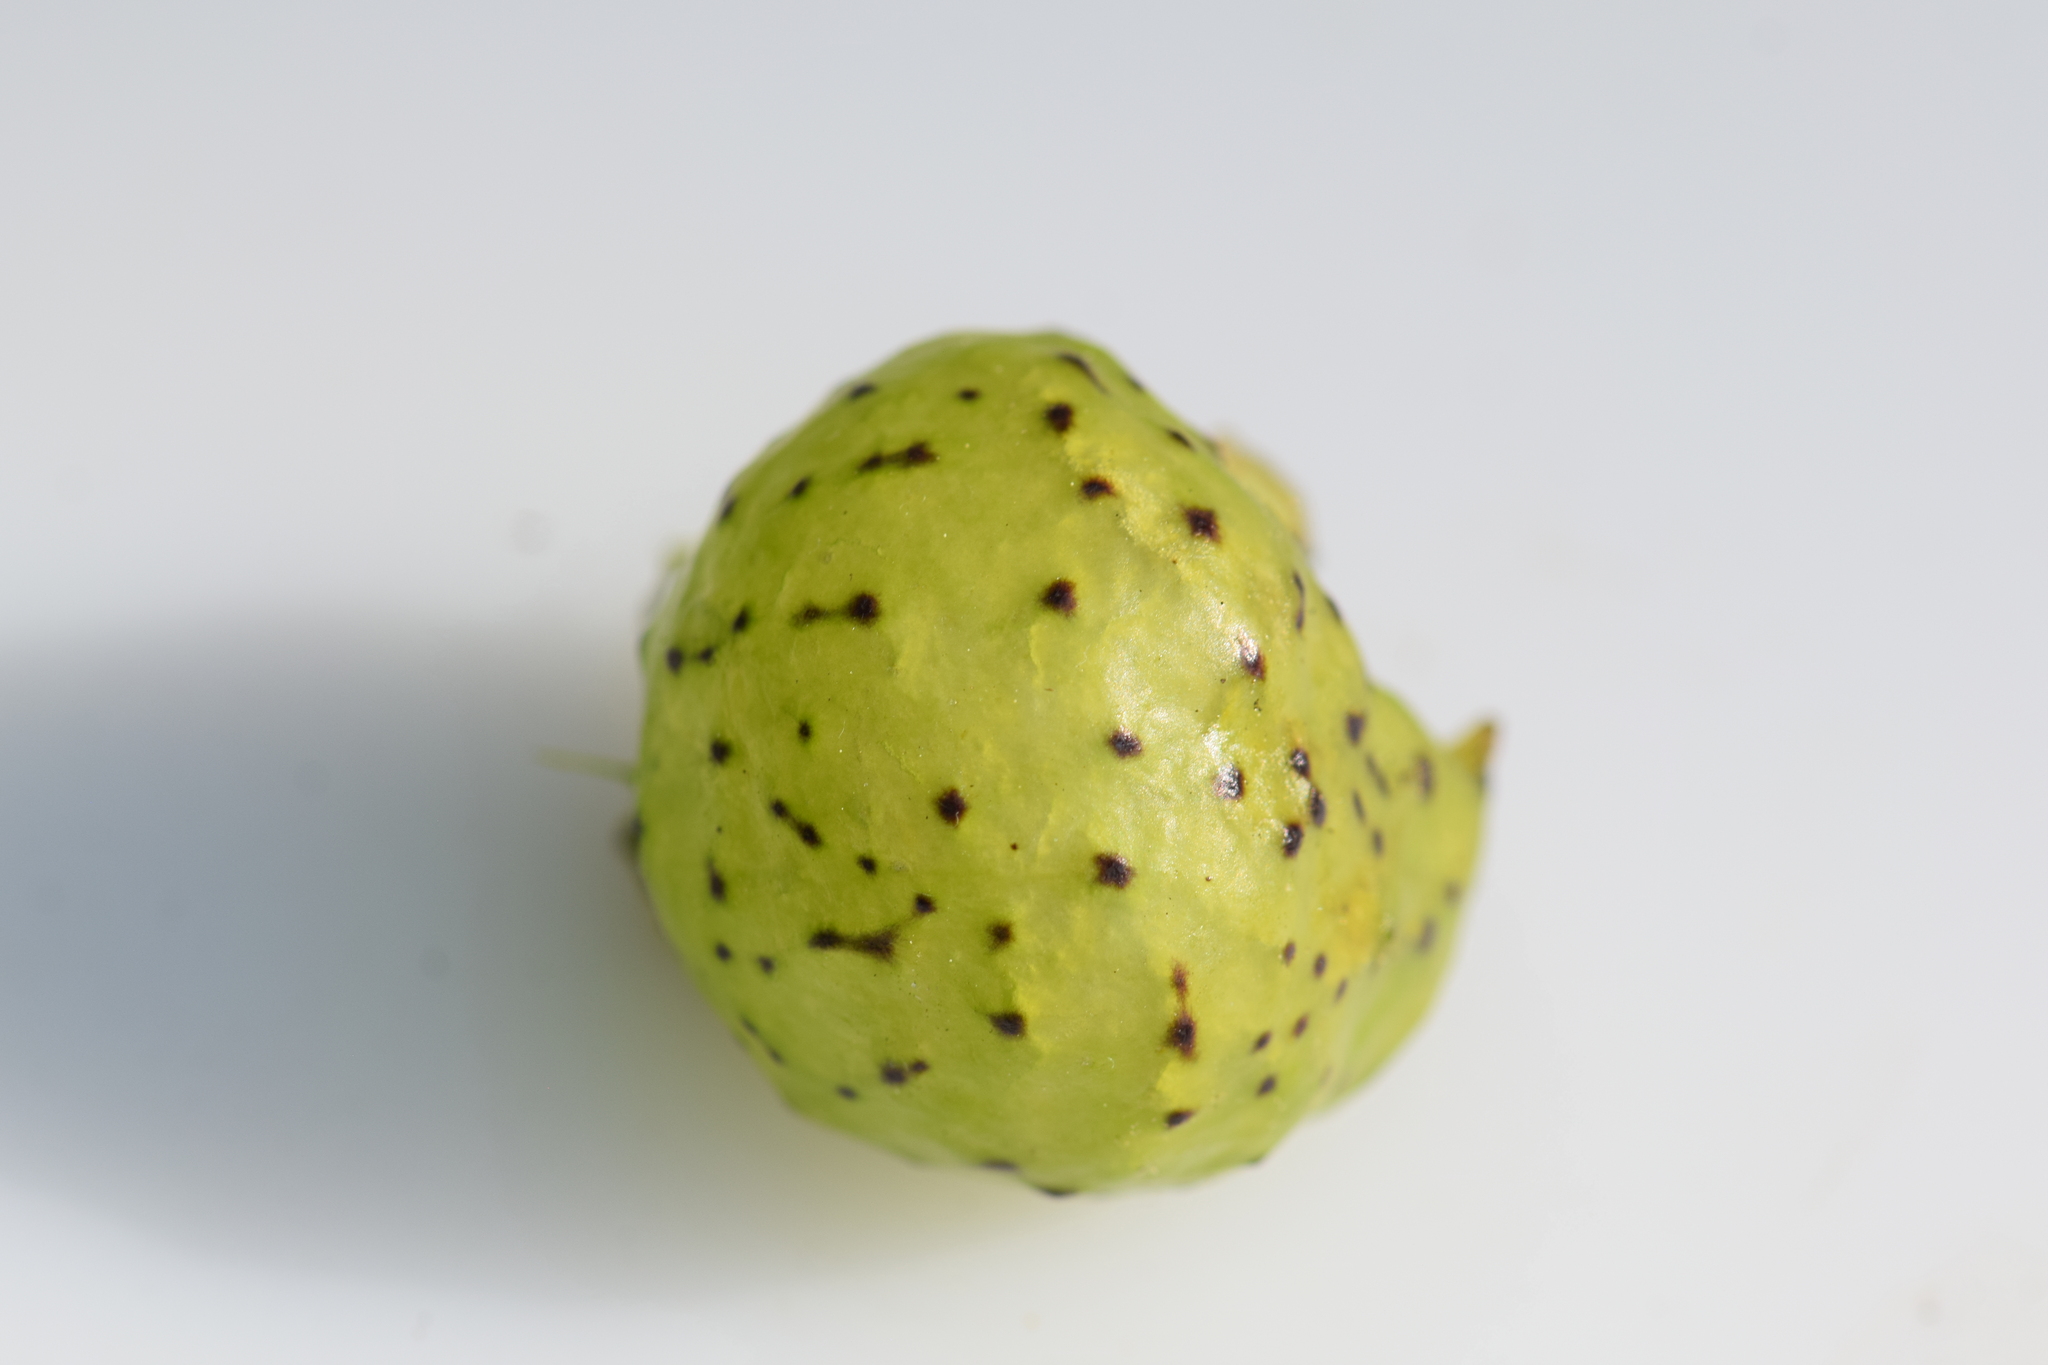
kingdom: Animalia
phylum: Arthropoda
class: Insecta
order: Hymenoptera
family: Cynipidae
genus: Amphibolips
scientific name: Amphibolips
